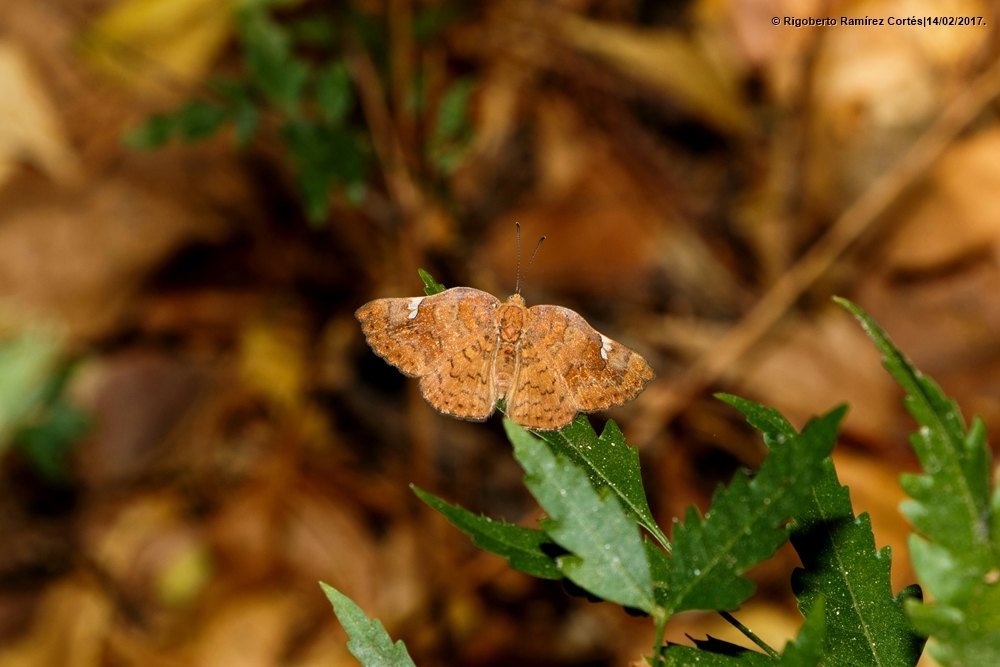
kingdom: Animalia
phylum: Arthropoda
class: Insecta
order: Lepidoptera
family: Riodinidae
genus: Curvie
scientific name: Curvie emesia
